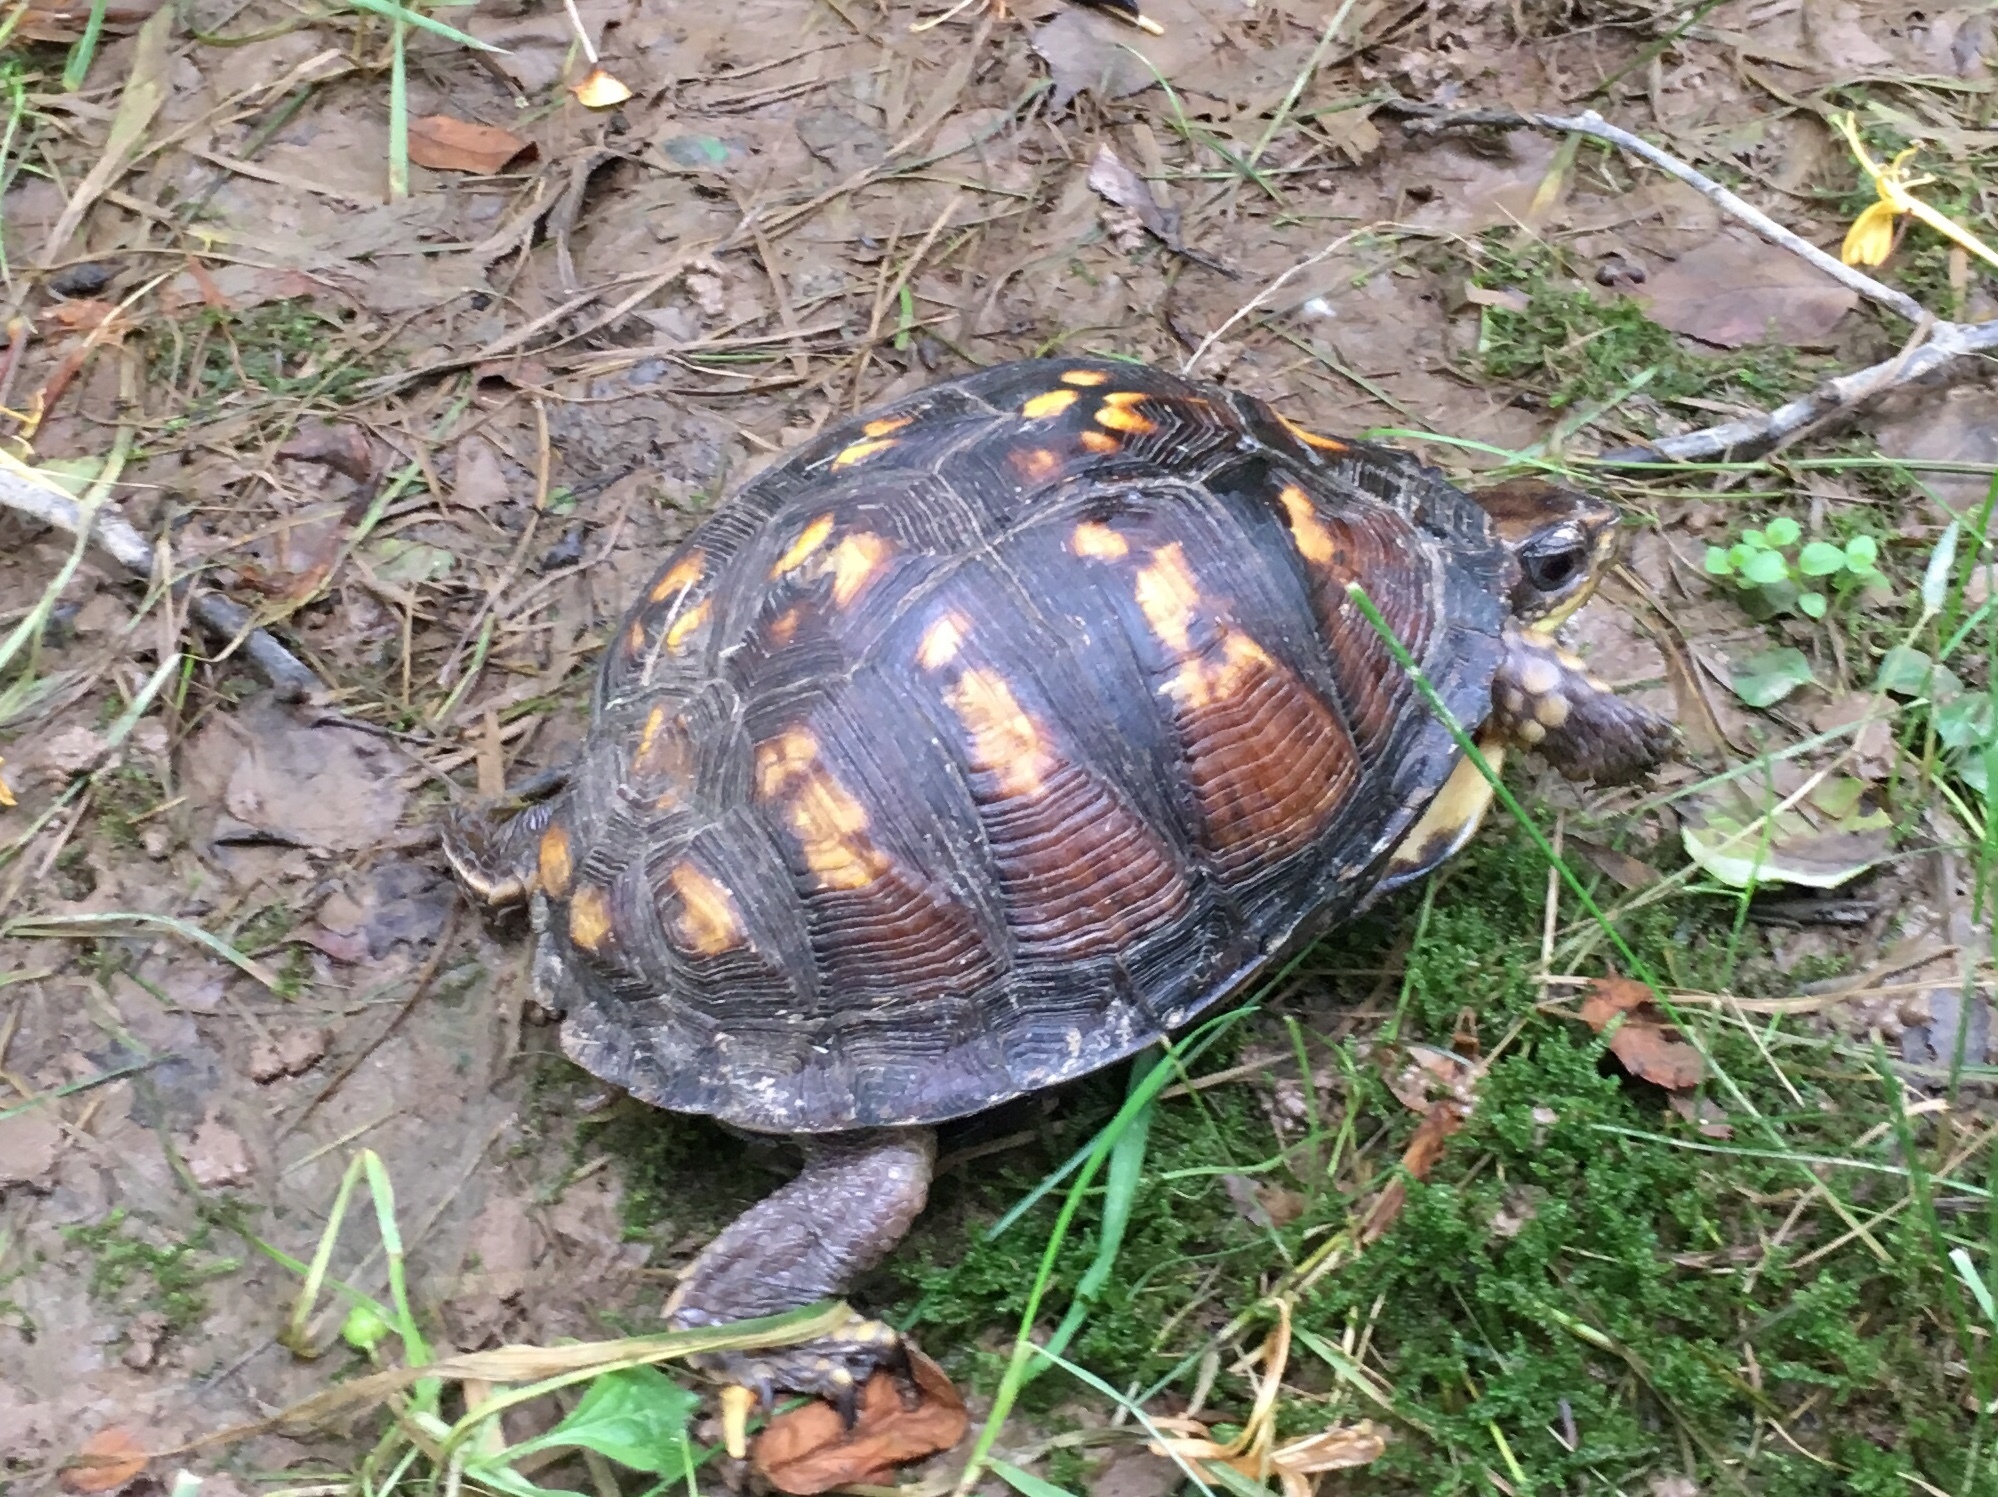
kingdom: Animalia
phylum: Chordata
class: Testudines
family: Emydidae
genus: Terrapene
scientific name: Terrapene carolina
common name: Common box turtle
